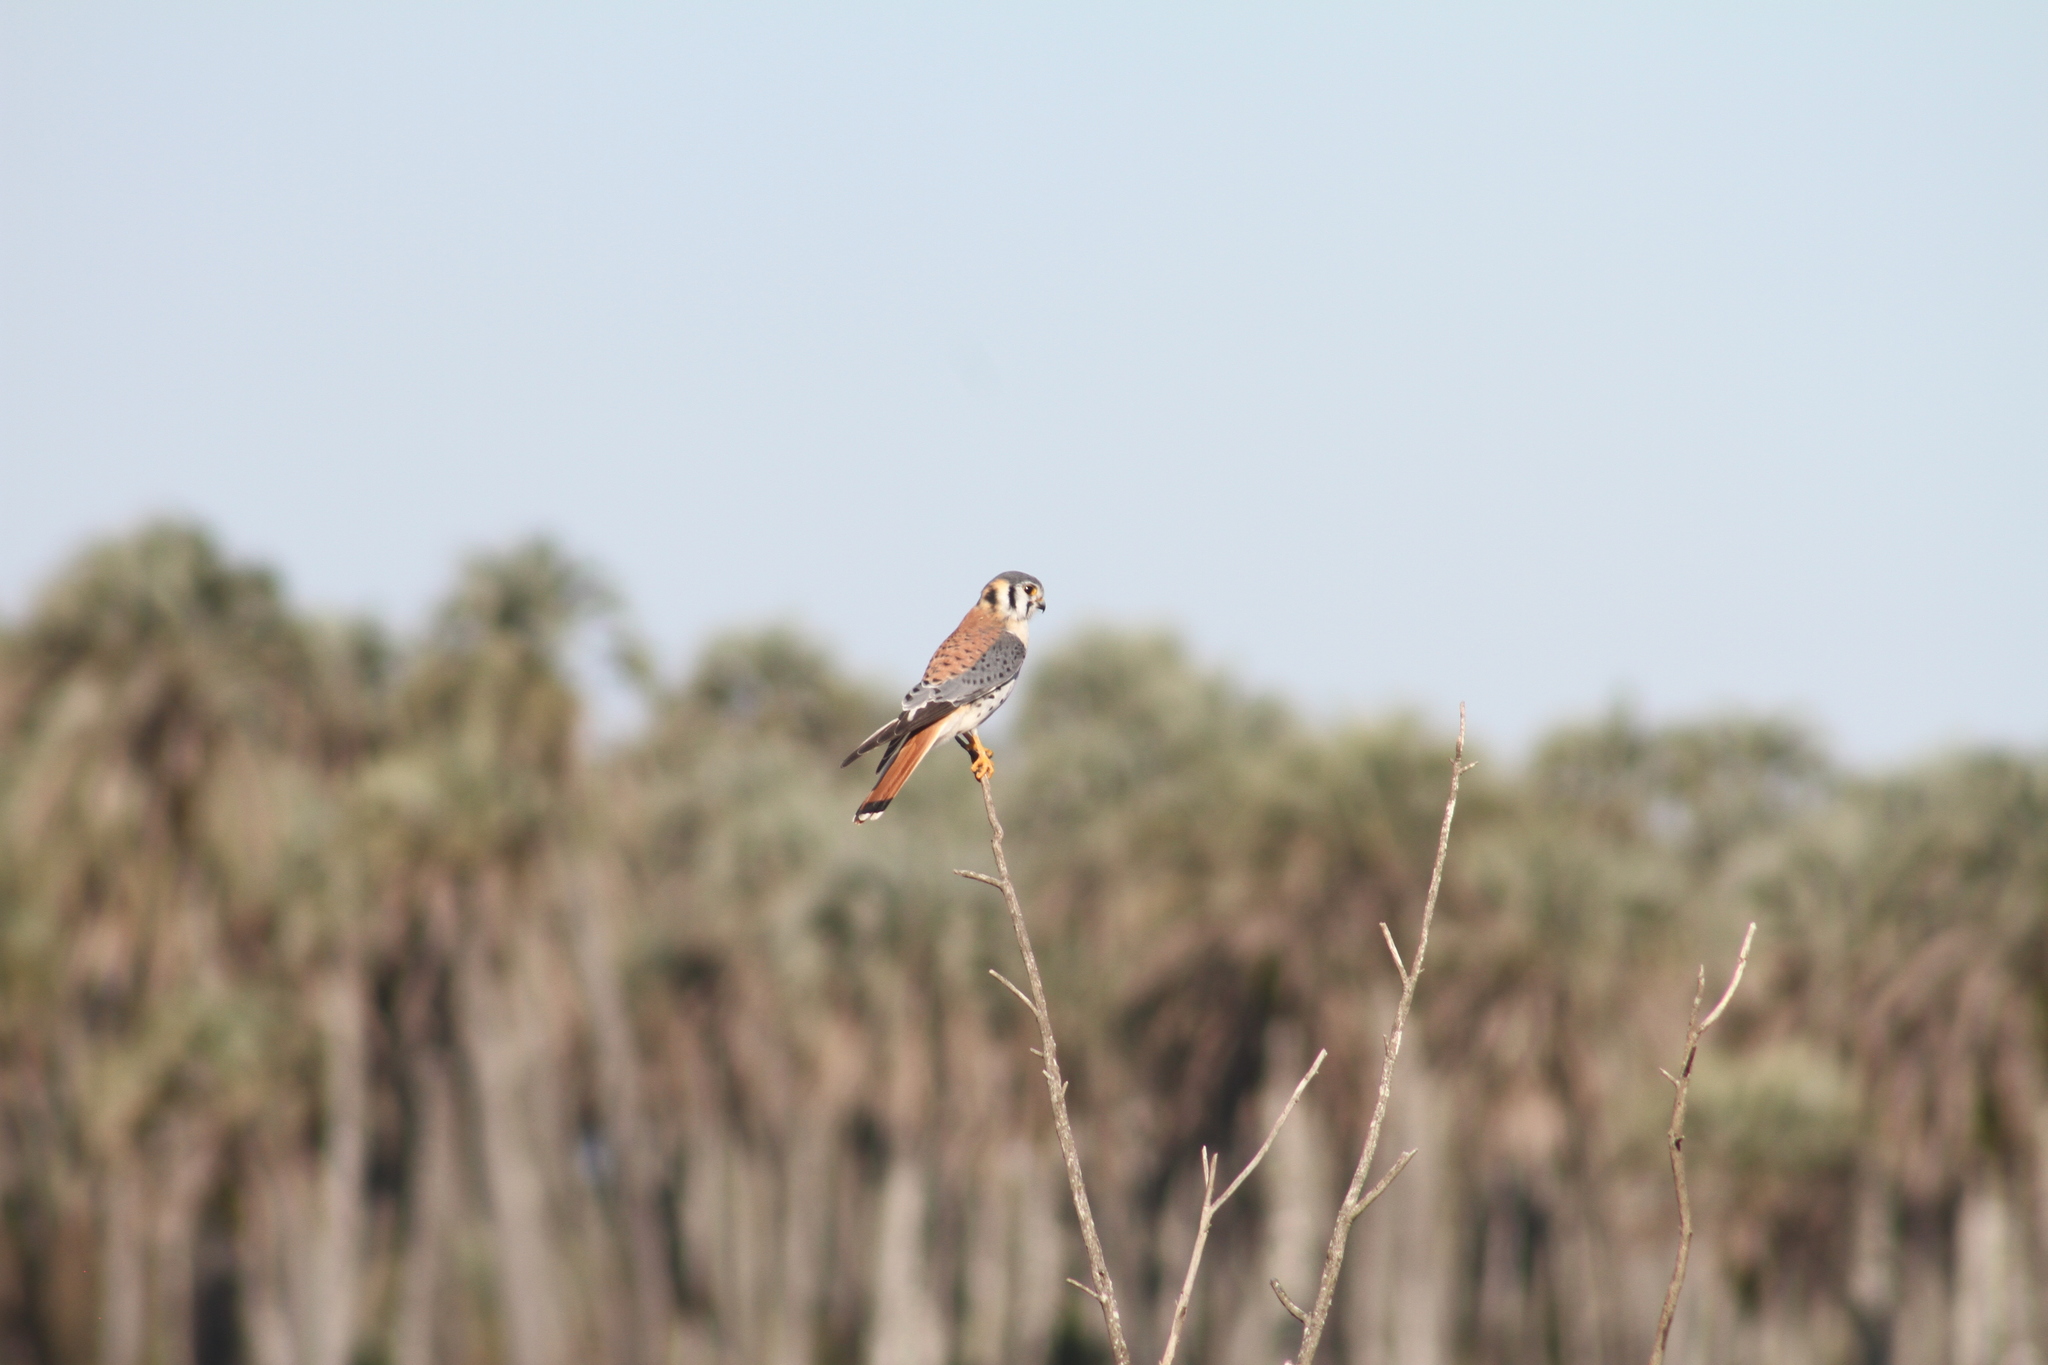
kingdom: Animalia
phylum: Chordata
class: Aves
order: Falconiformes
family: Falconidae
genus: Falco
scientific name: Falco sparverius
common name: American kestrel
